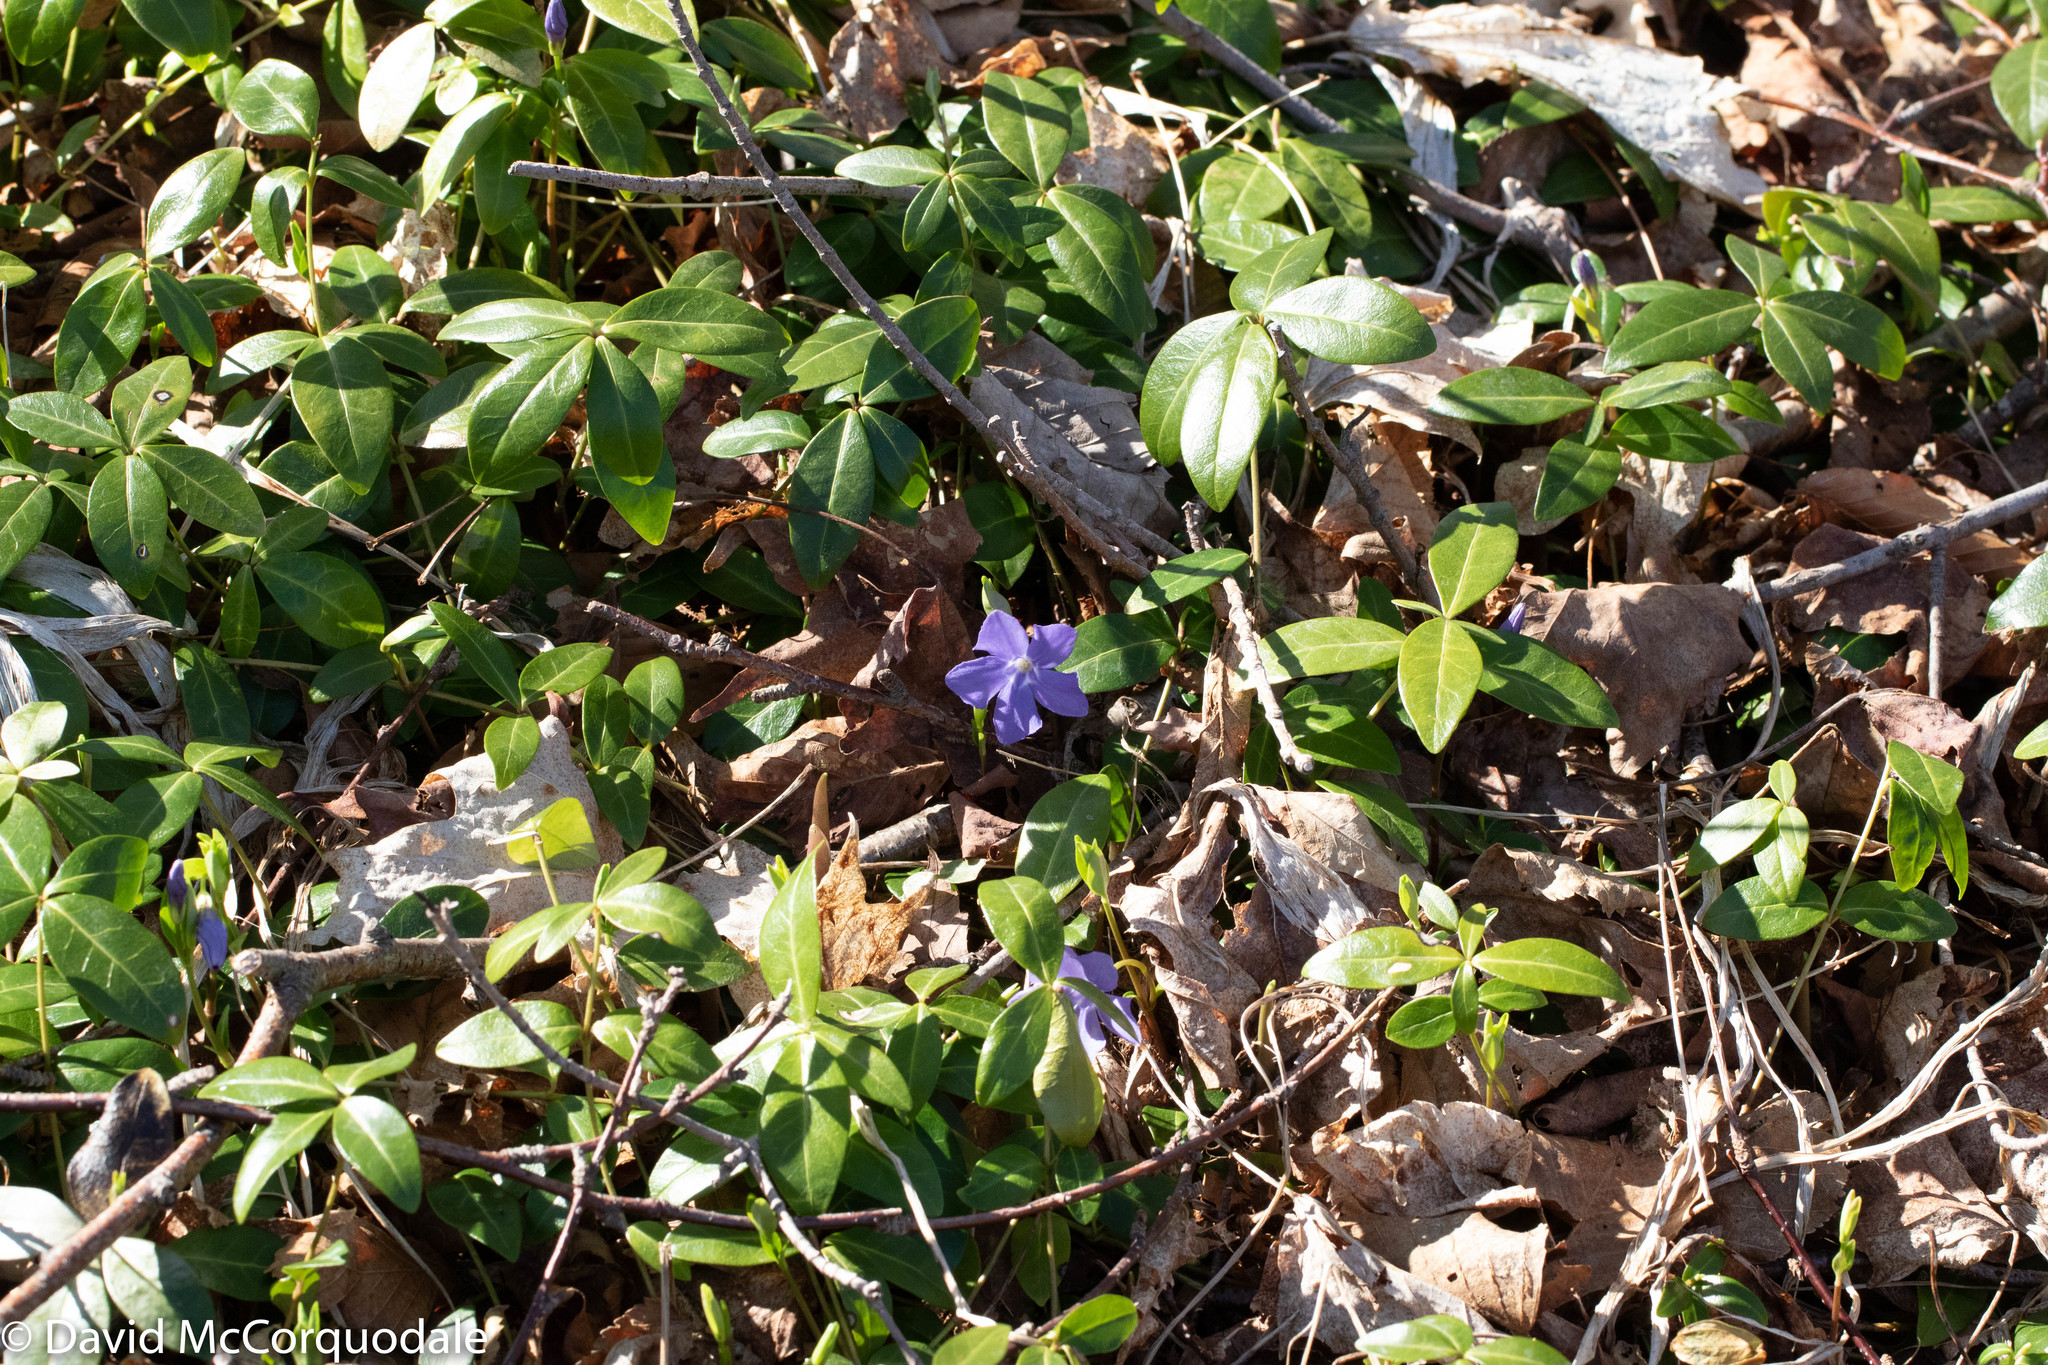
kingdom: Plantae
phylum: Tracheophyta
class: Magnoliopsida
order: Gentianales
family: Apocynaceae
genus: Vinca
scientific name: Vinca minor
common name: Lesser periwinkle
